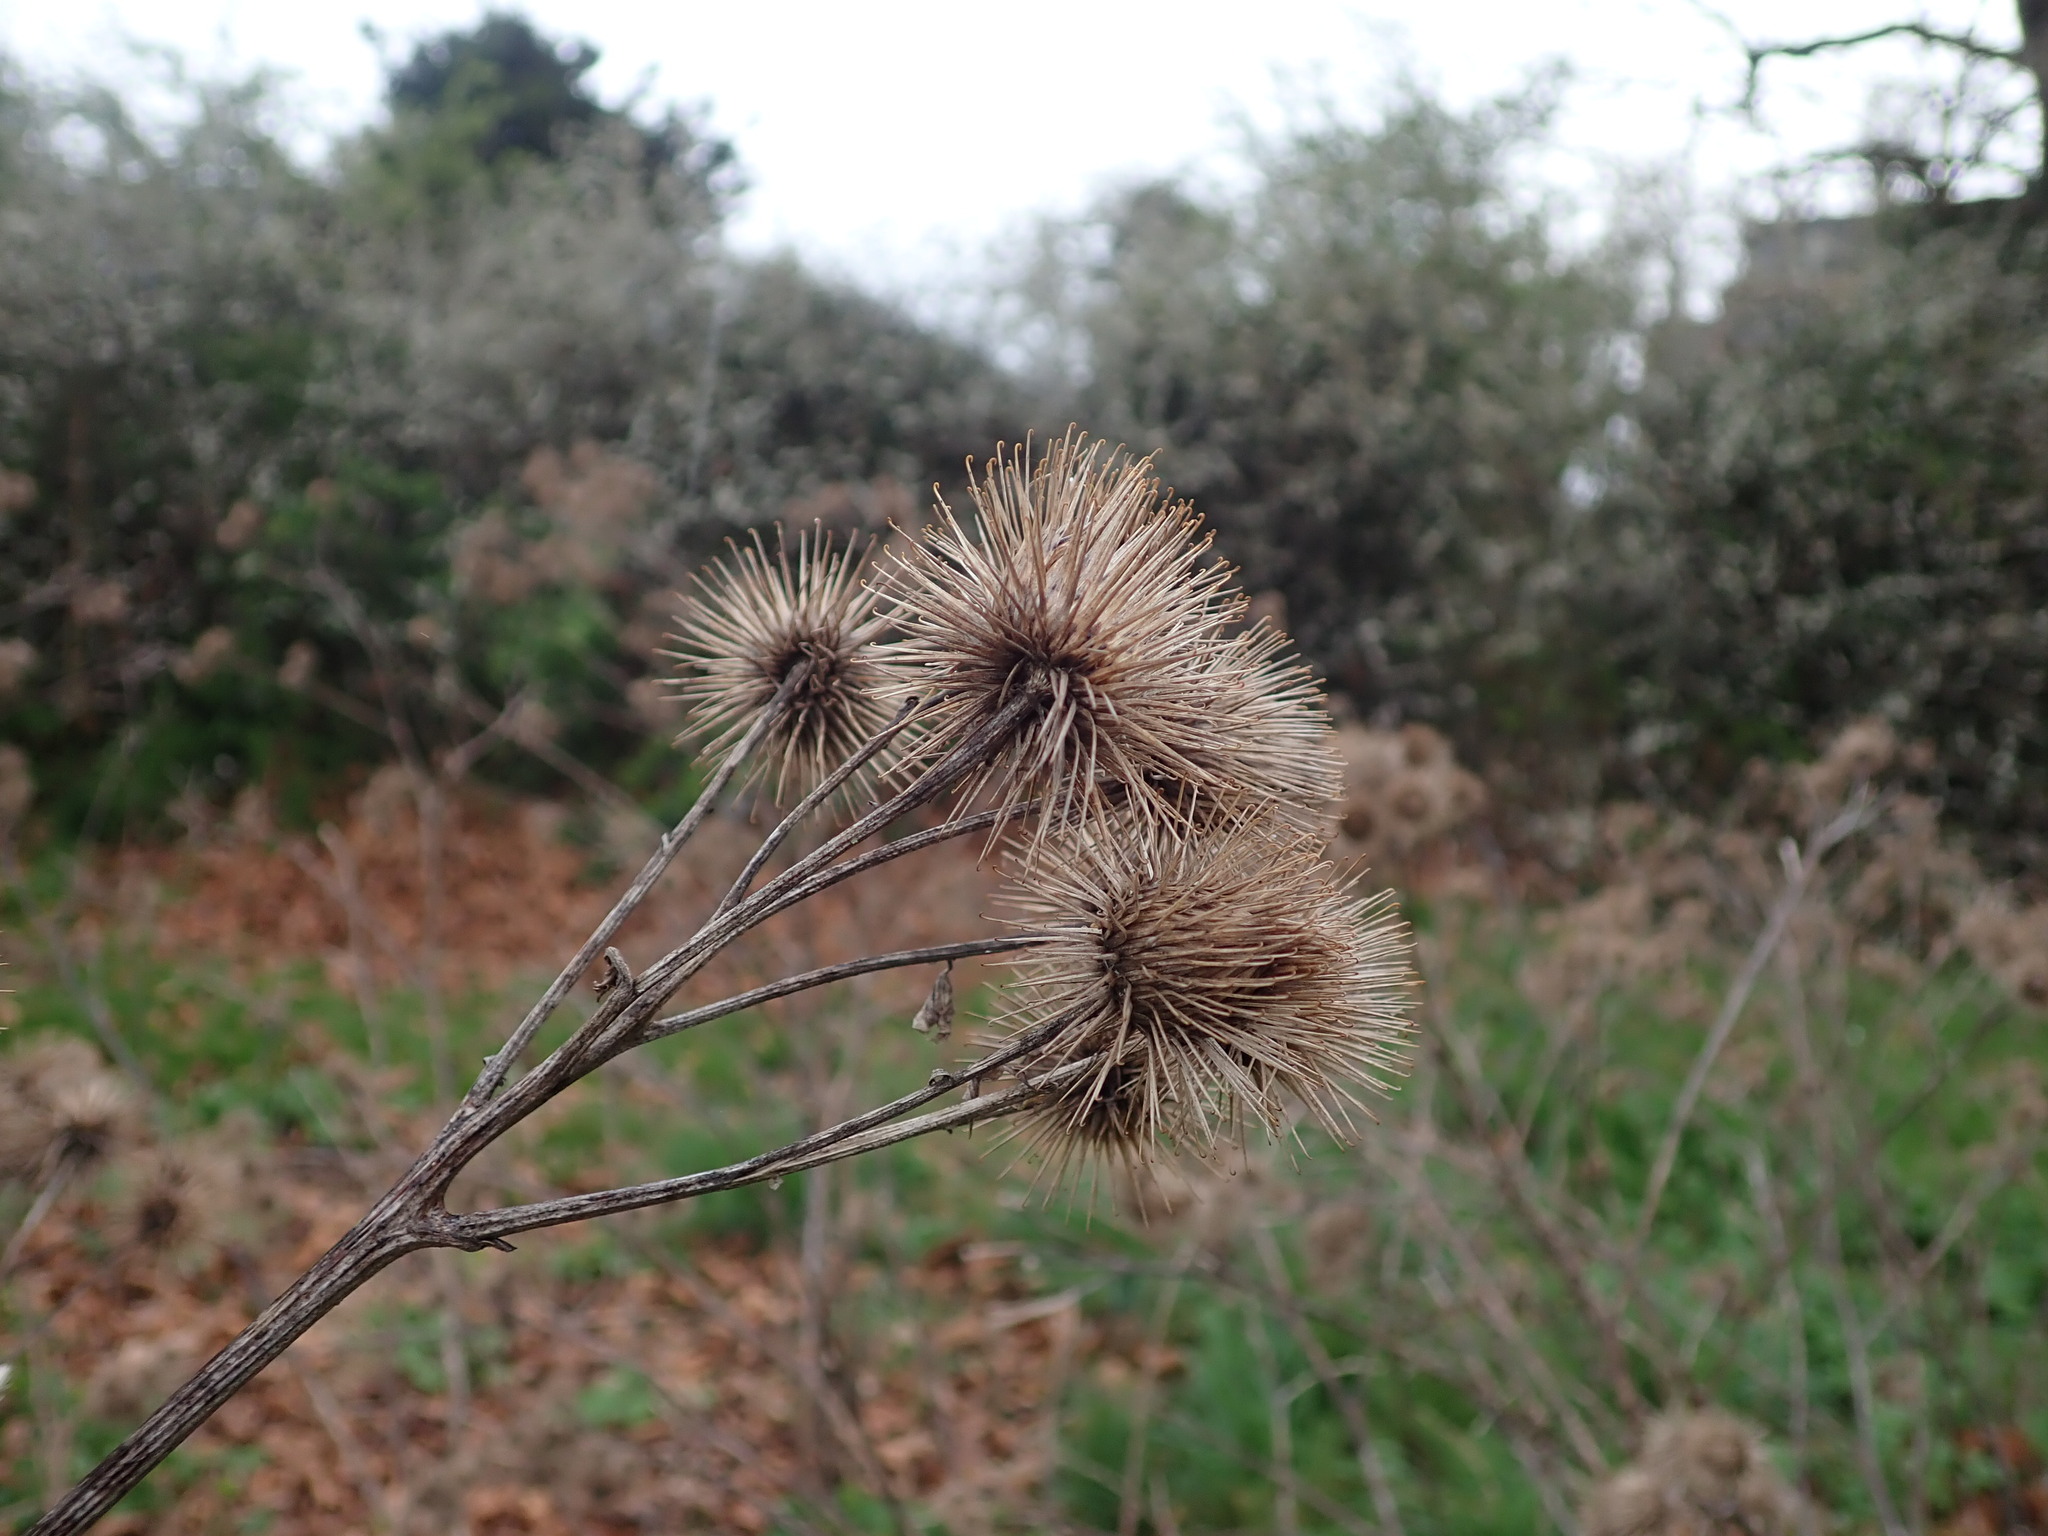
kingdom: Plantae
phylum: Tracheophyta
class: Magnoliopsida
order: Asterales
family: Asteraceae
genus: Arctium
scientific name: Arctium lappa
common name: Greater burdock
